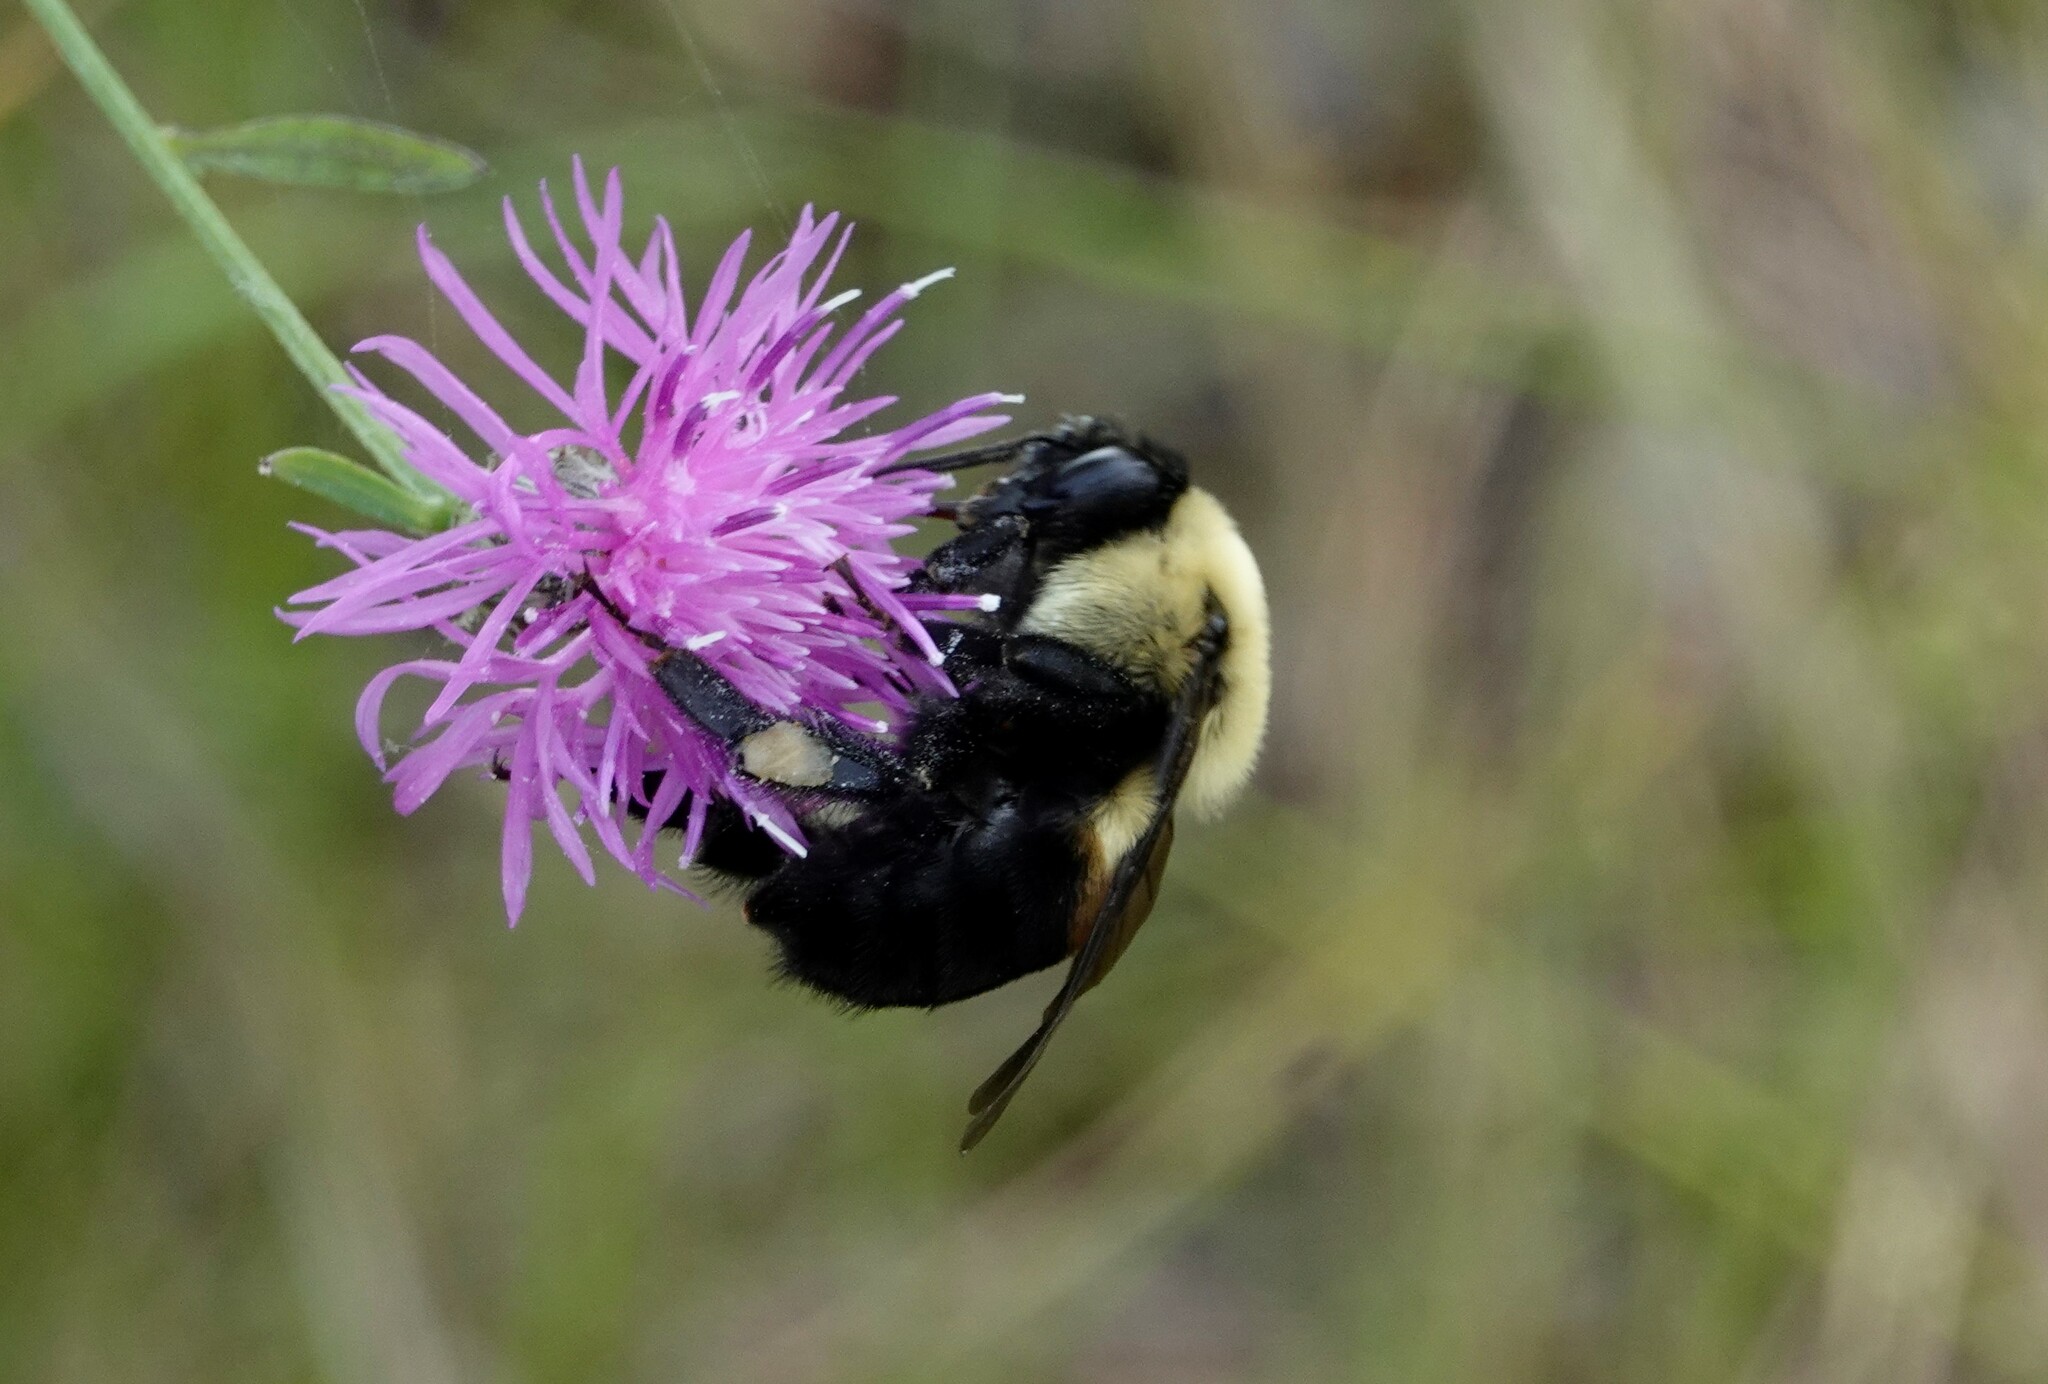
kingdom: Animalia
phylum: Arthropoda
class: Insecta
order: Hymenoptera
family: Apidae
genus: Bombus
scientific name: Bombus griseocollis
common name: Brown-belted bumble bee
